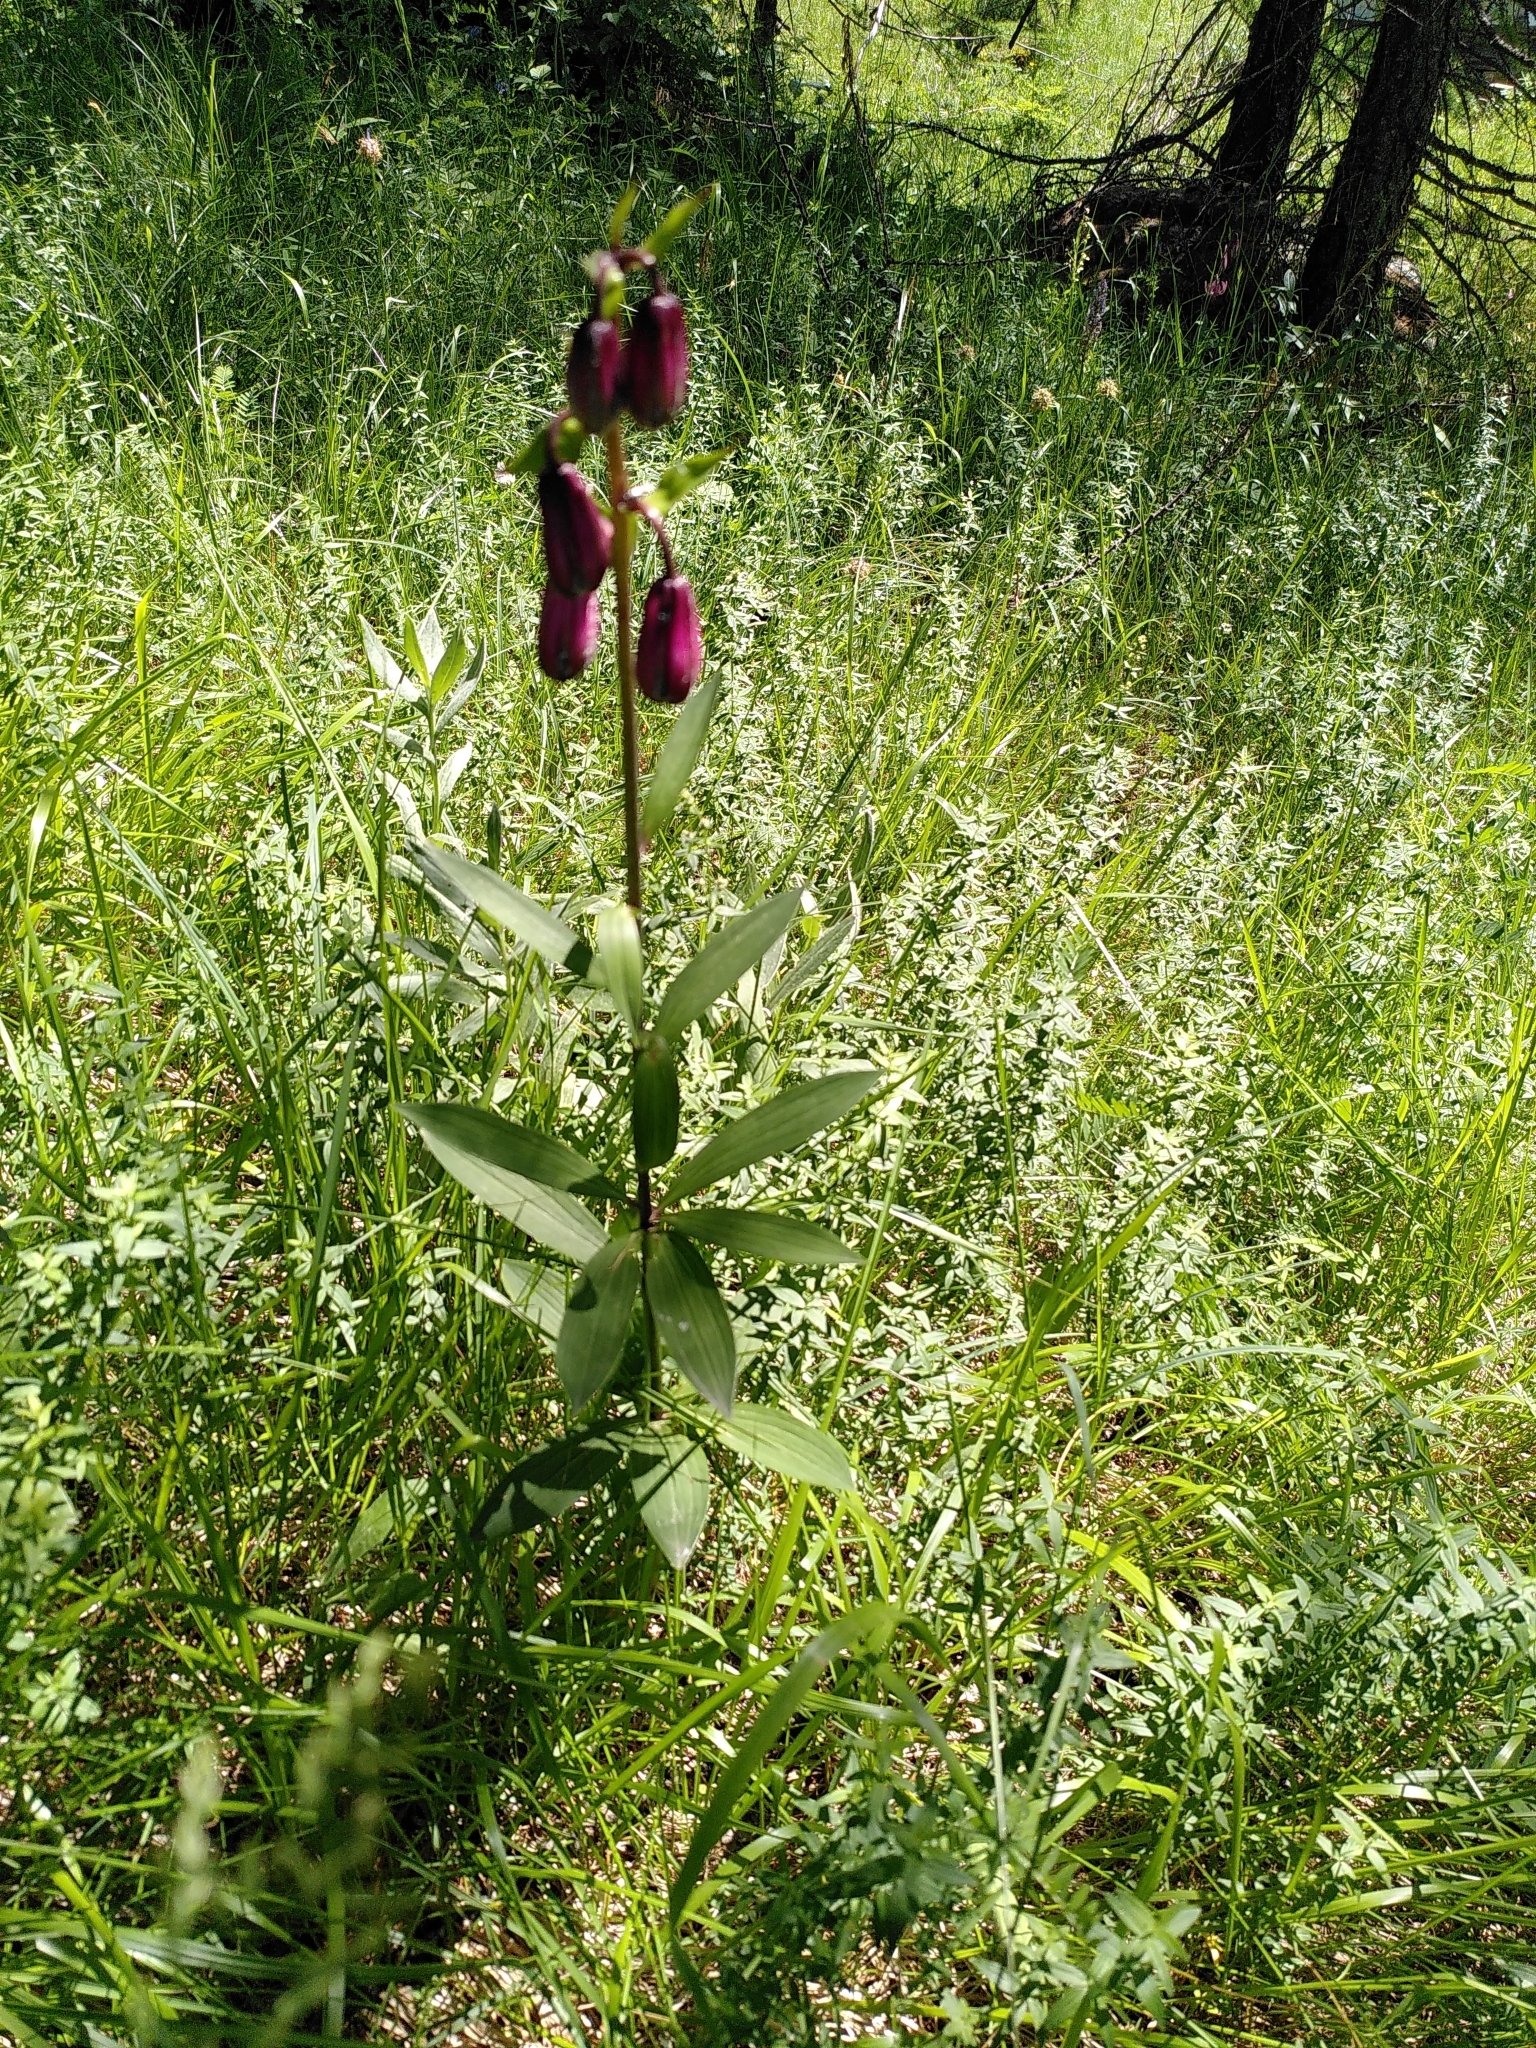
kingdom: Plantae
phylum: Tracheophyta
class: Liliopsida
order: Liliales
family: Liliaceae
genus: Lilium
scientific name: Lilium martagon
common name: Martagon lily
